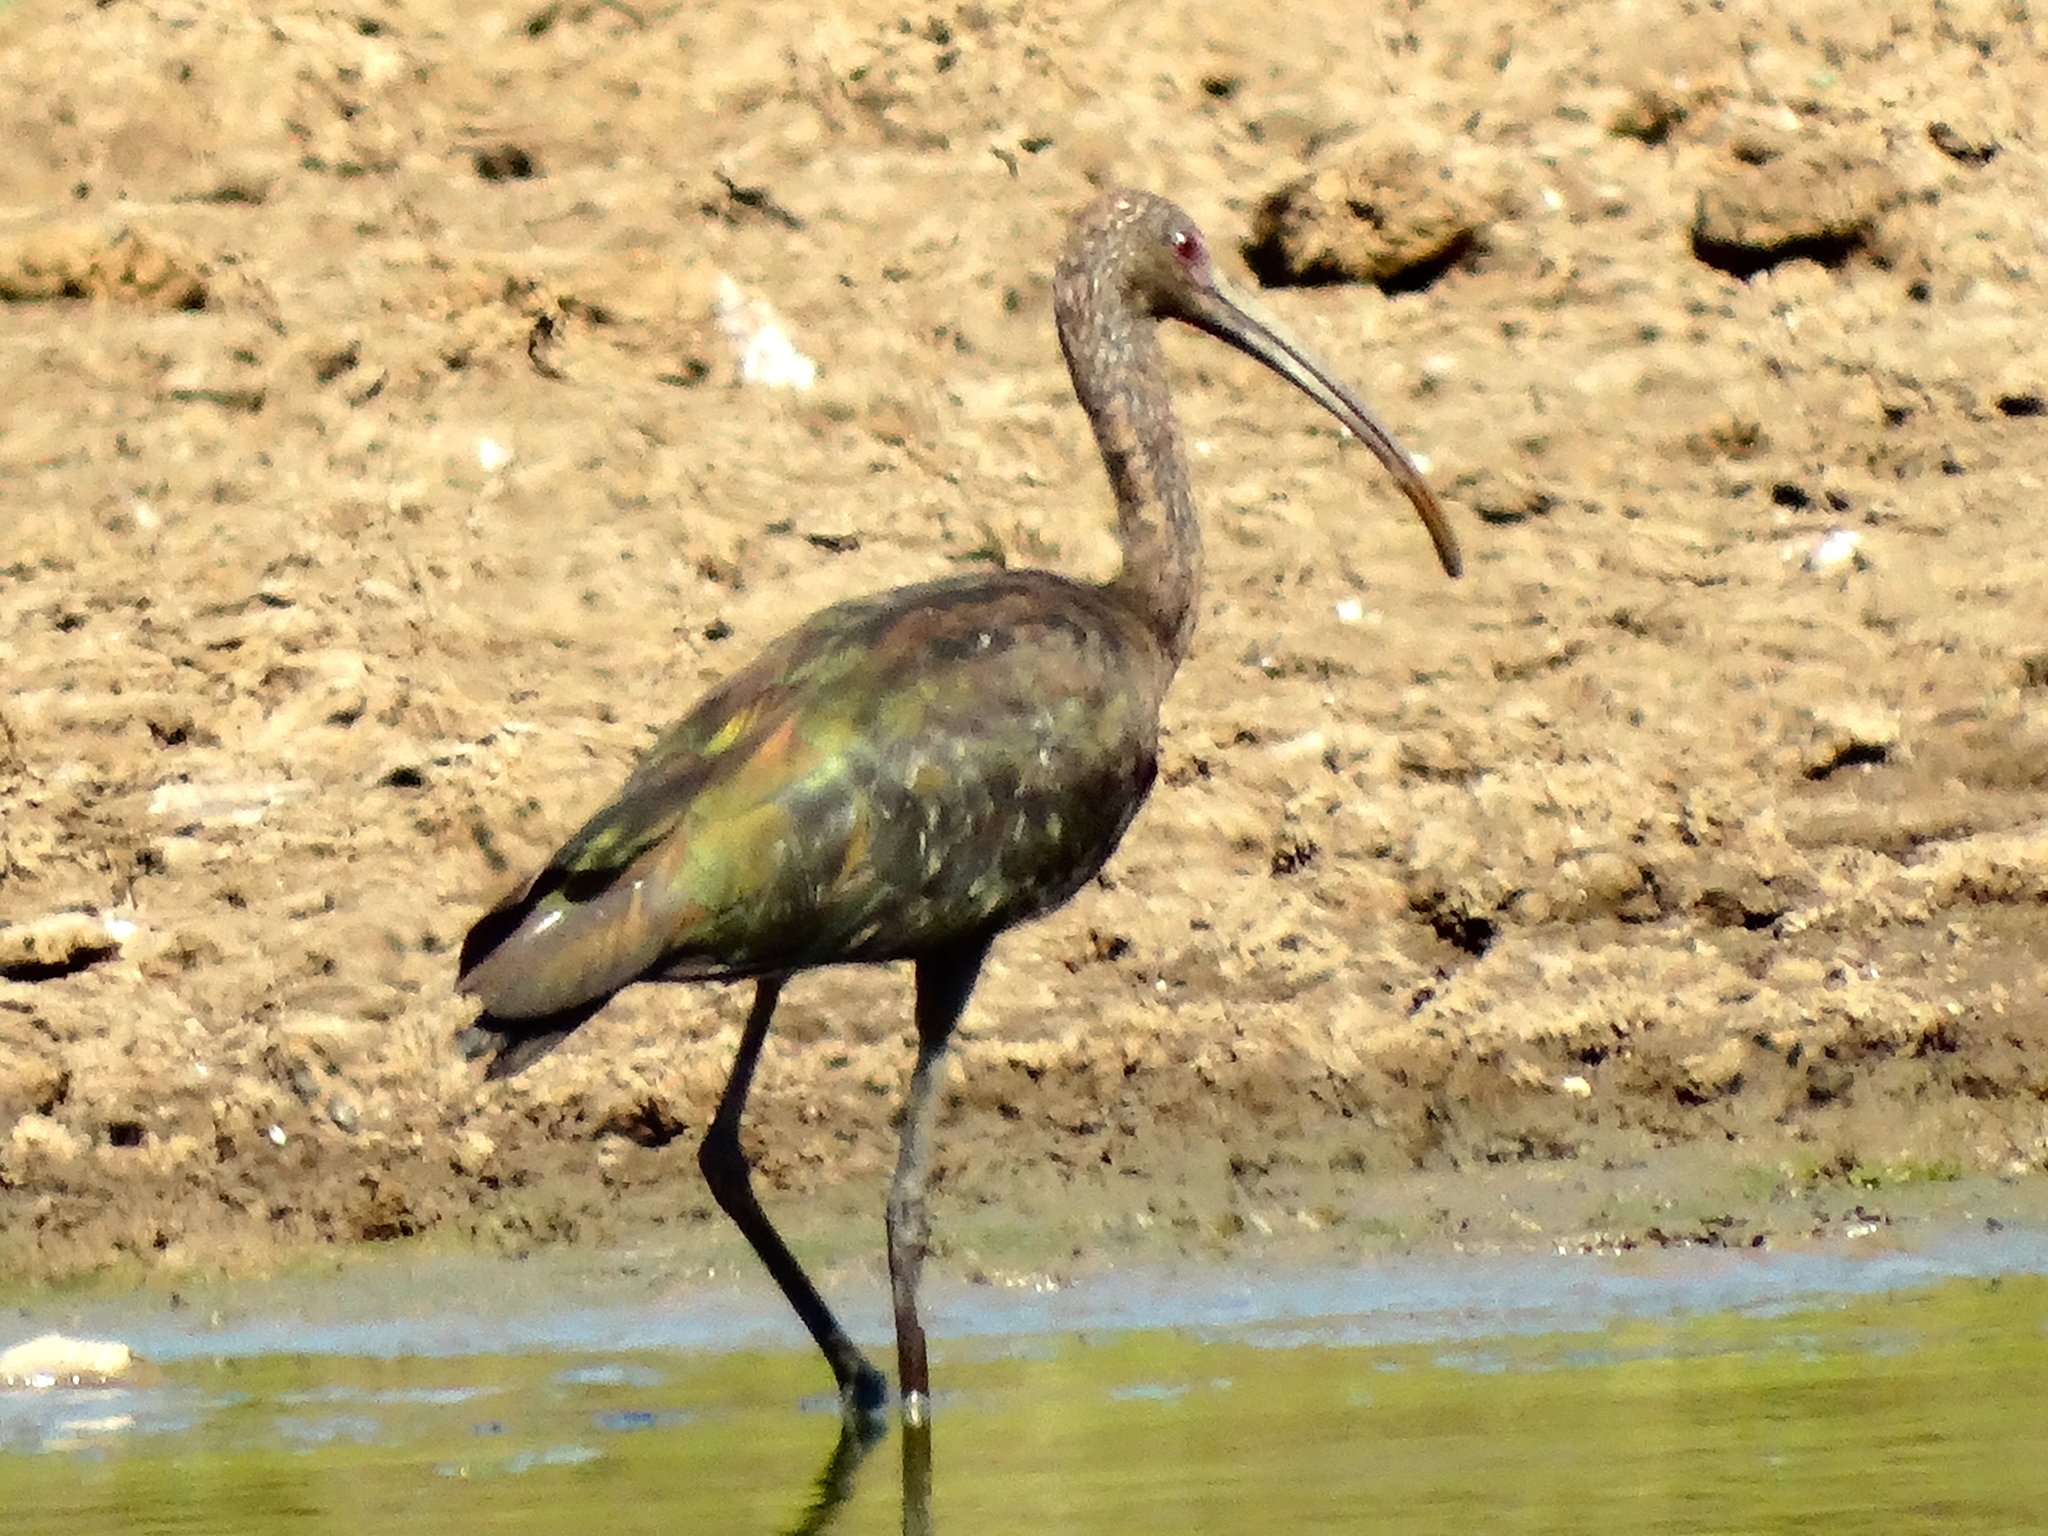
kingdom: Animalia
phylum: Chordata
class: Aves
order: Pelecaniformes
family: Threskiornithidae
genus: Plegadis
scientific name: Plegadis chihi
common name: White-faced ibis
